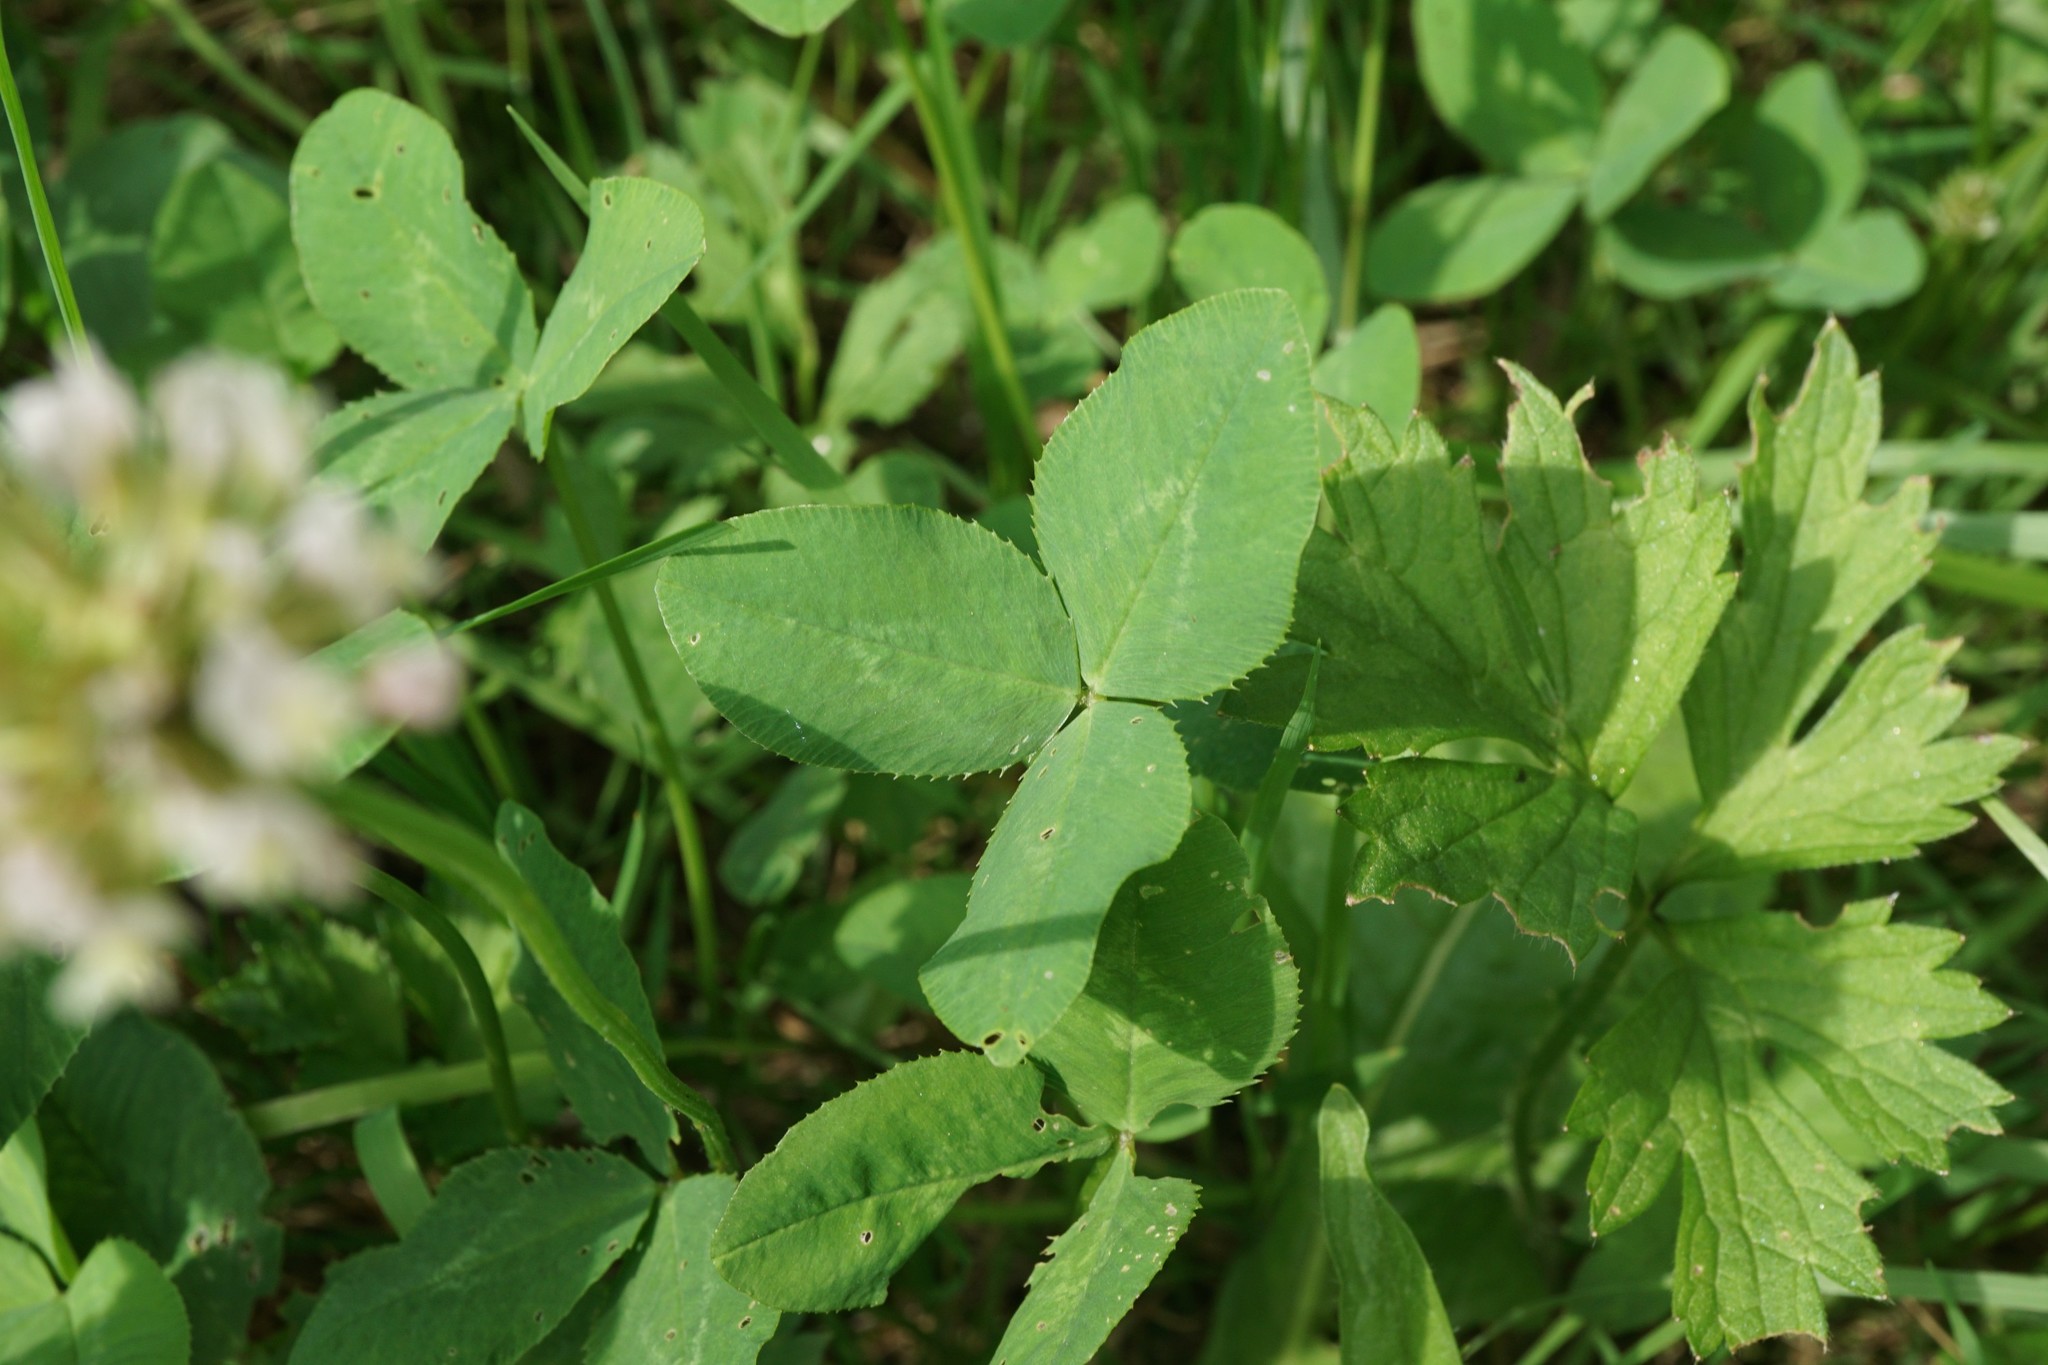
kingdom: Plantae
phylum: Tracheophyta
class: Magnoliopsida
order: Fabales
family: Fabaceae
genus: Trifolium
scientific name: Trifolium repens
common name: White clover
